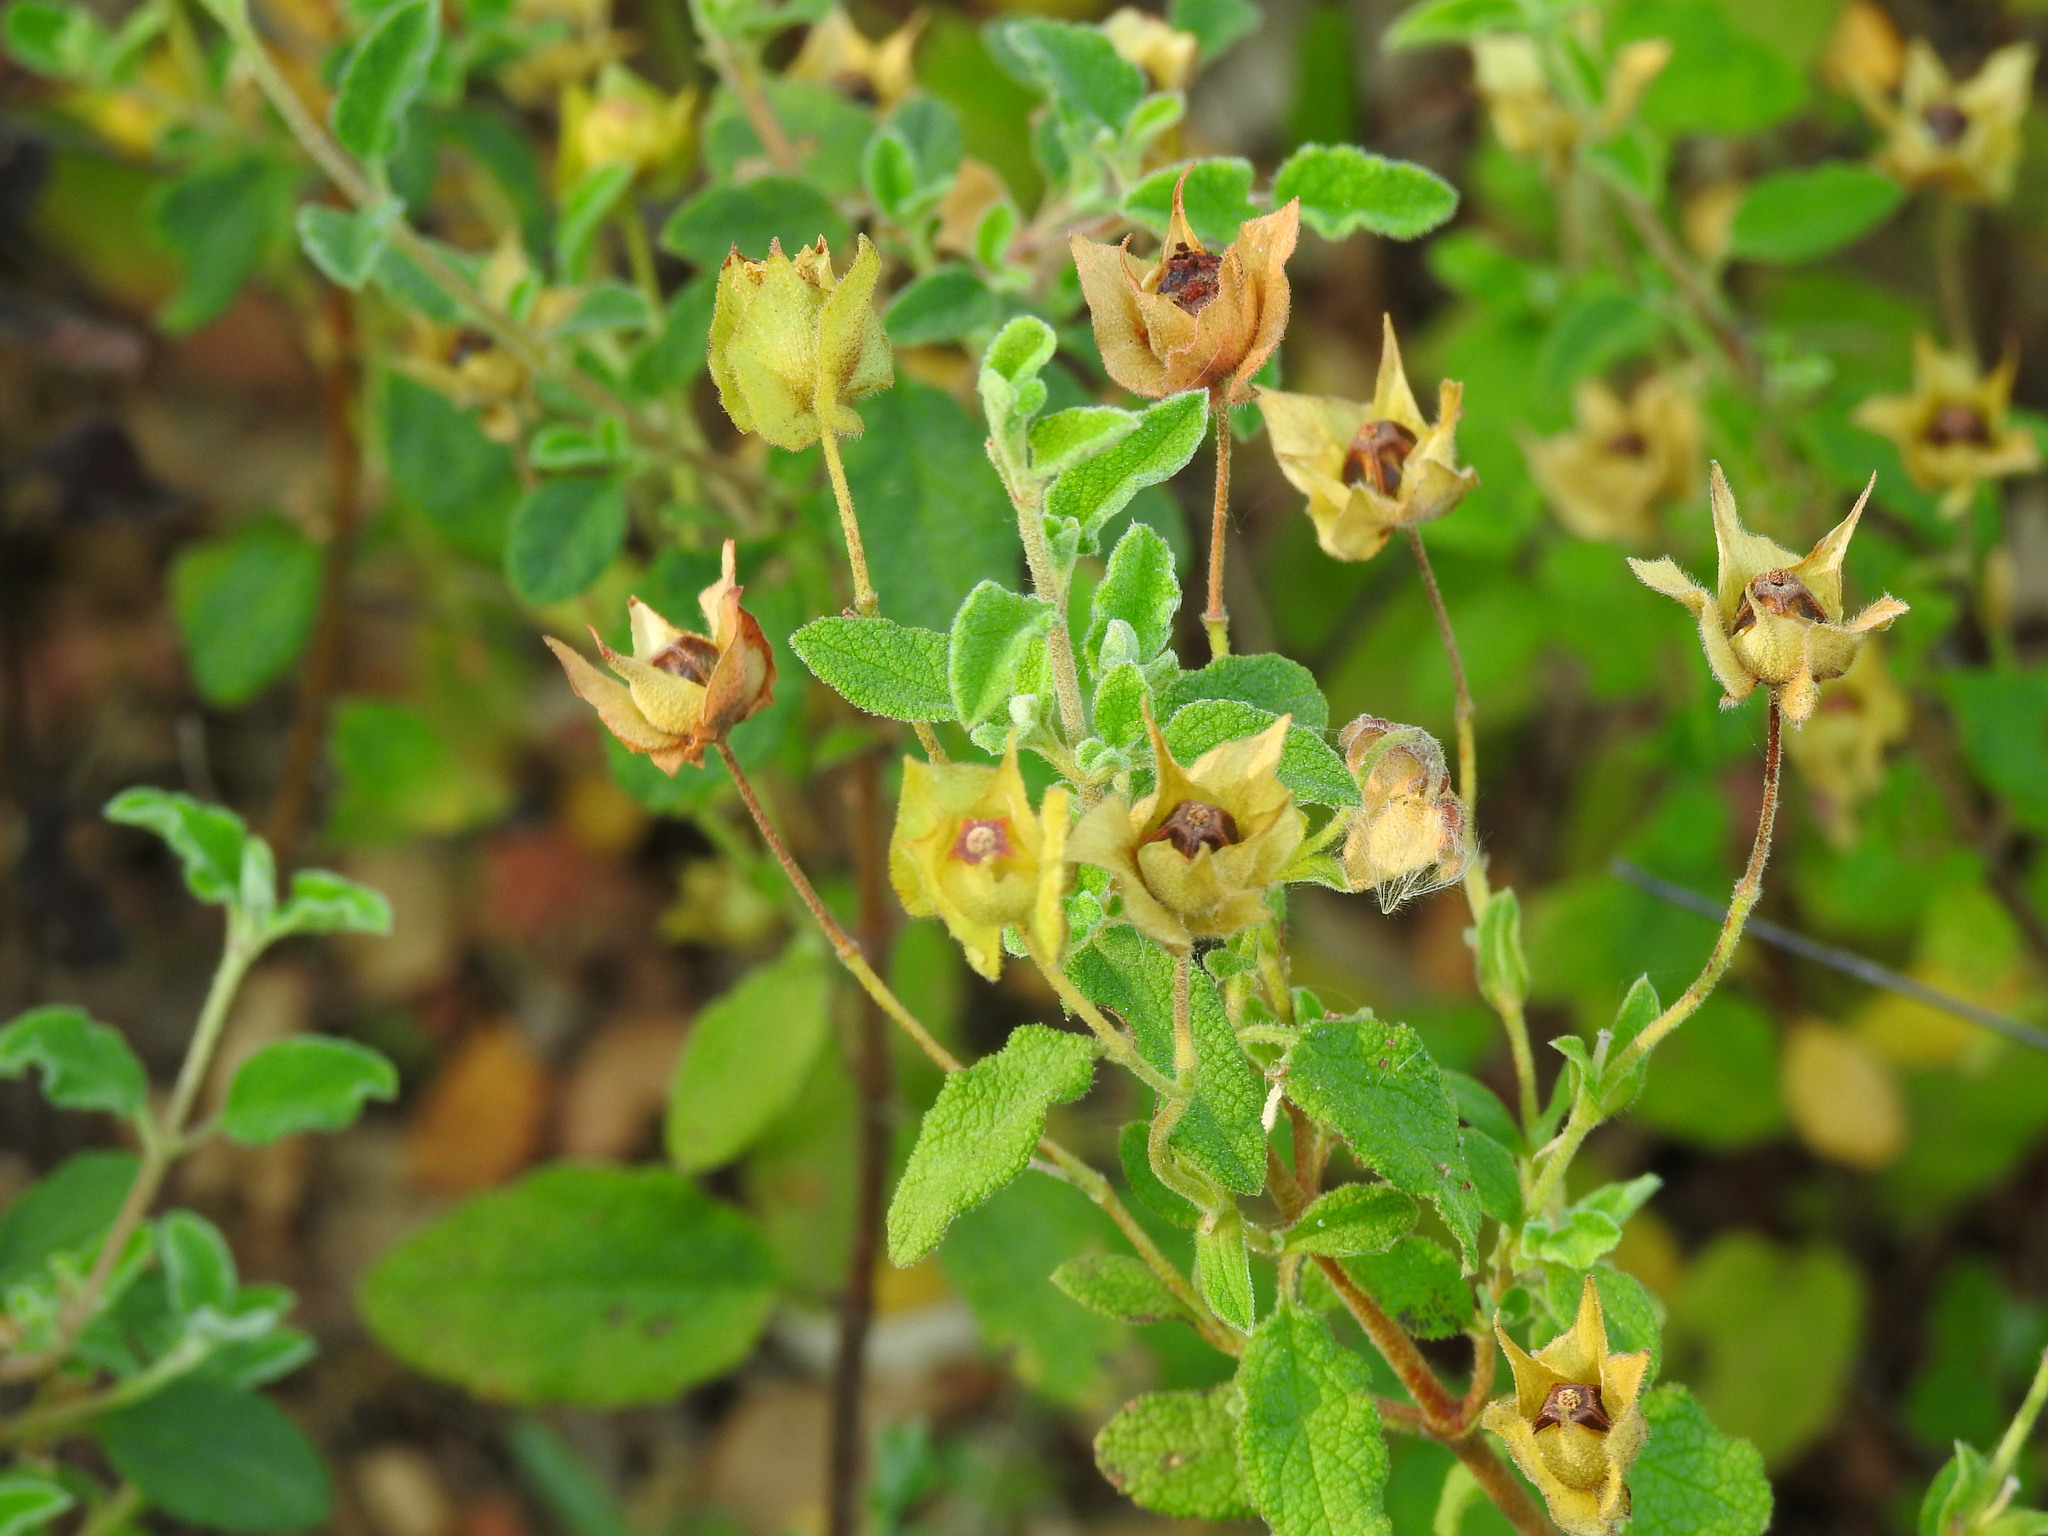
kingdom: Plantae
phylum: Tracheophyta
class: Magnoliopsida
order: Malvales
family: Cistaceae
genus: Cistus
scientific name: Cistus salviifolius
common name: Salvia cistus
